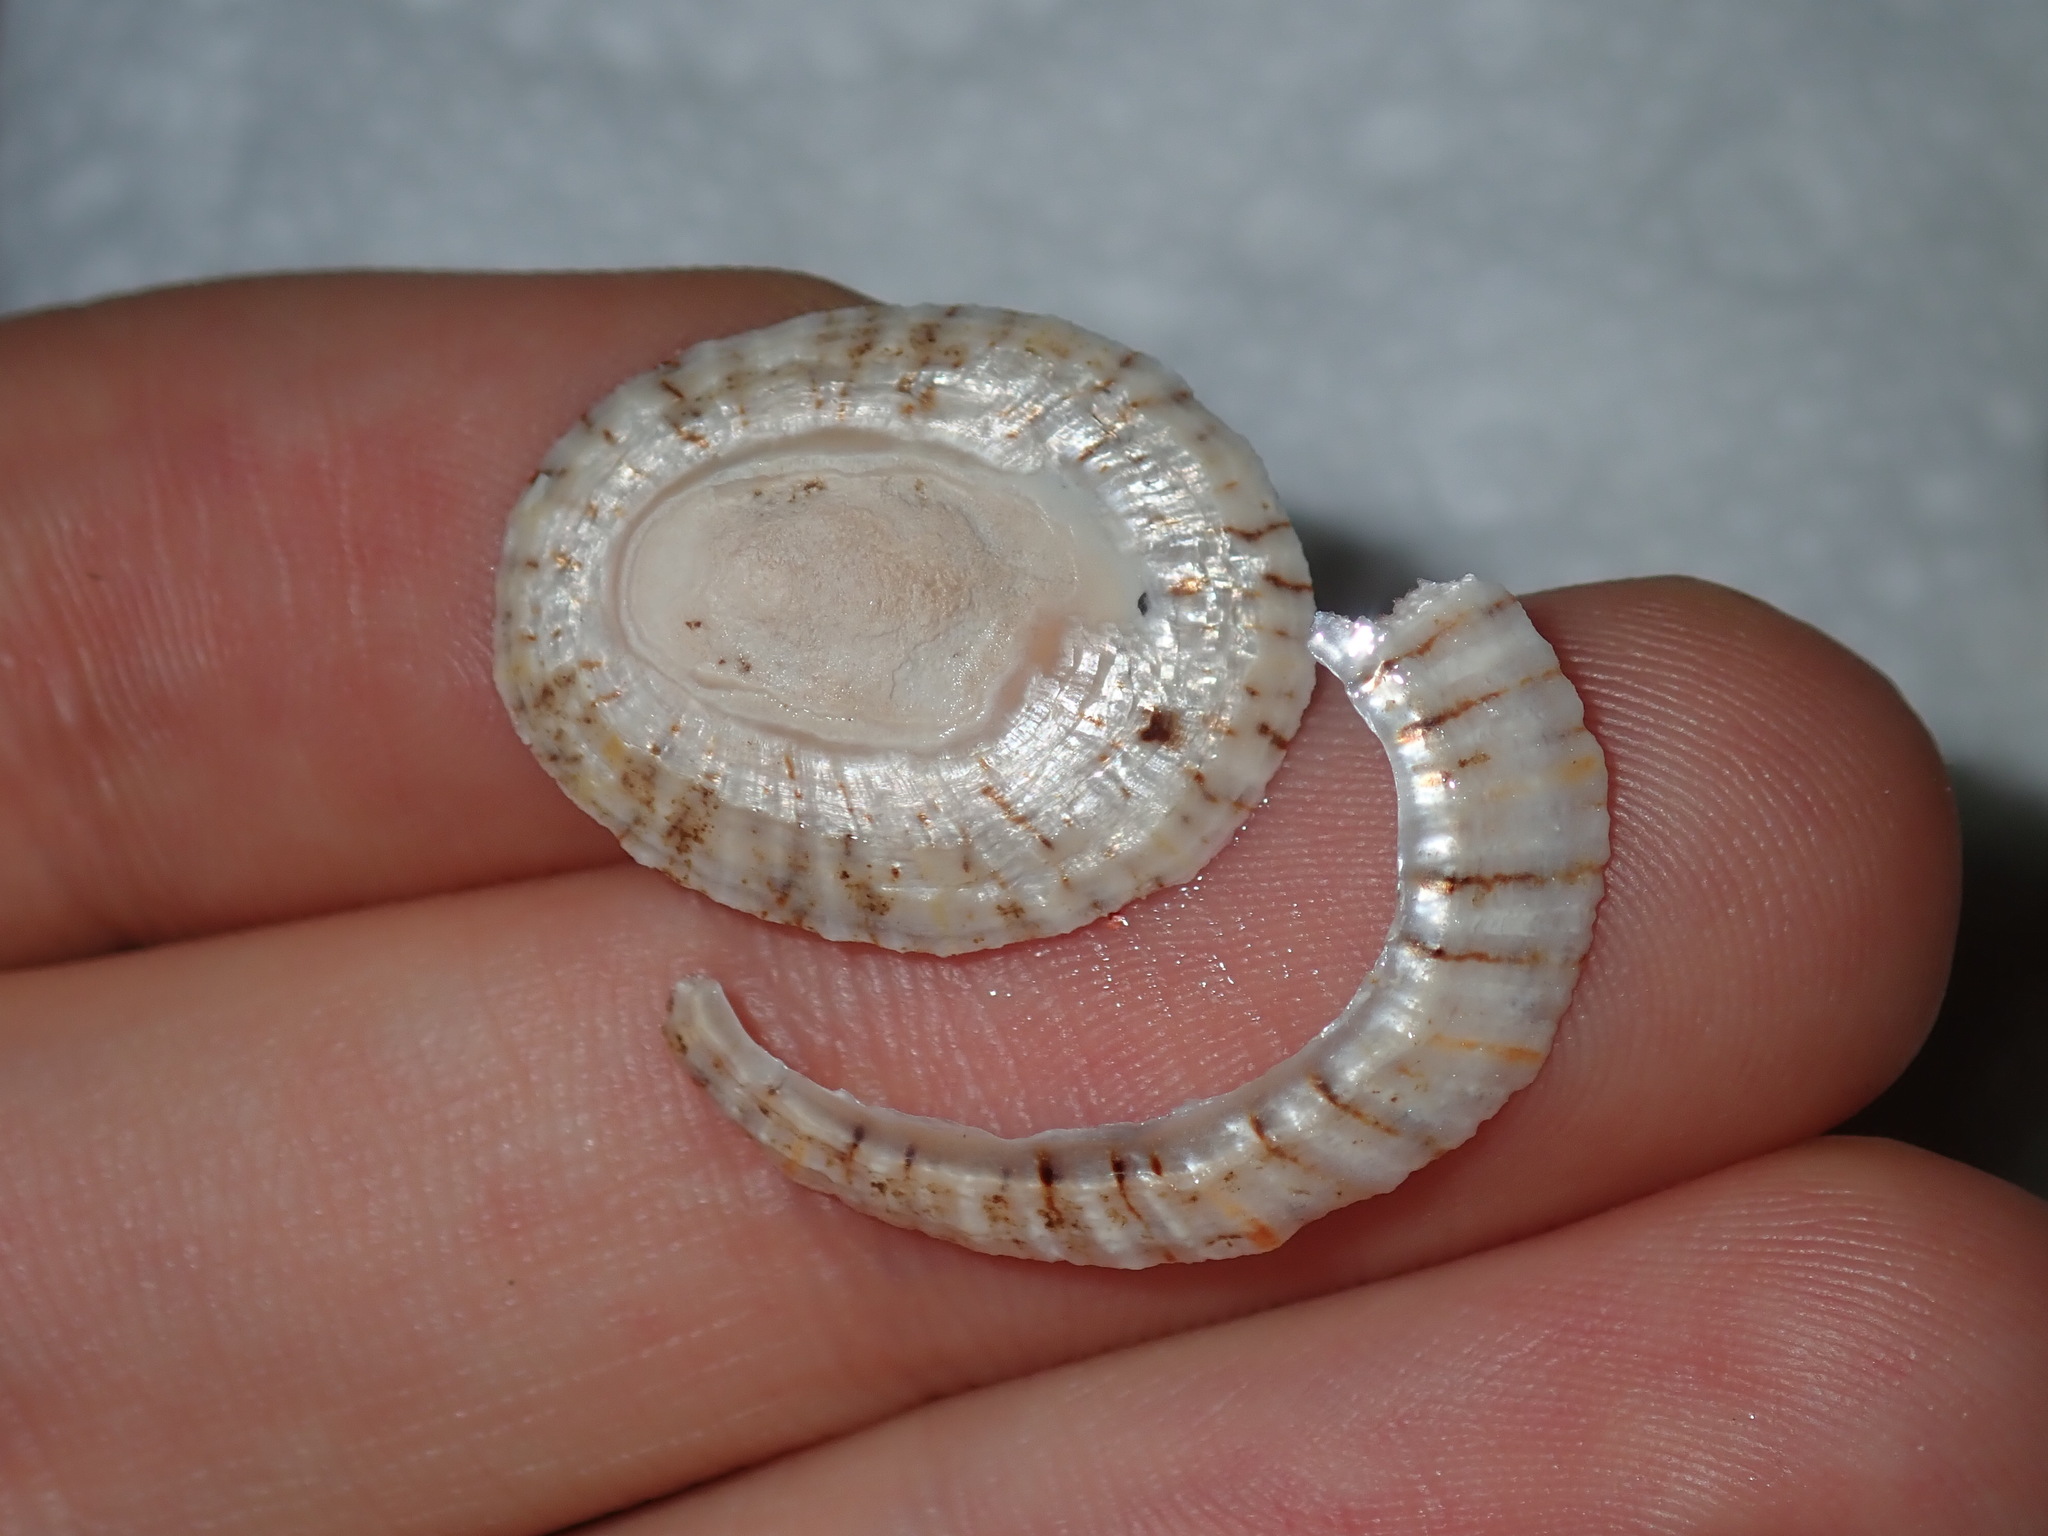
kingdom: Animalia
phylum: Mollusca
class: Gastropoda
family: Nacellidae
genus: Cellana
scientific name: Cellana tramoserica
